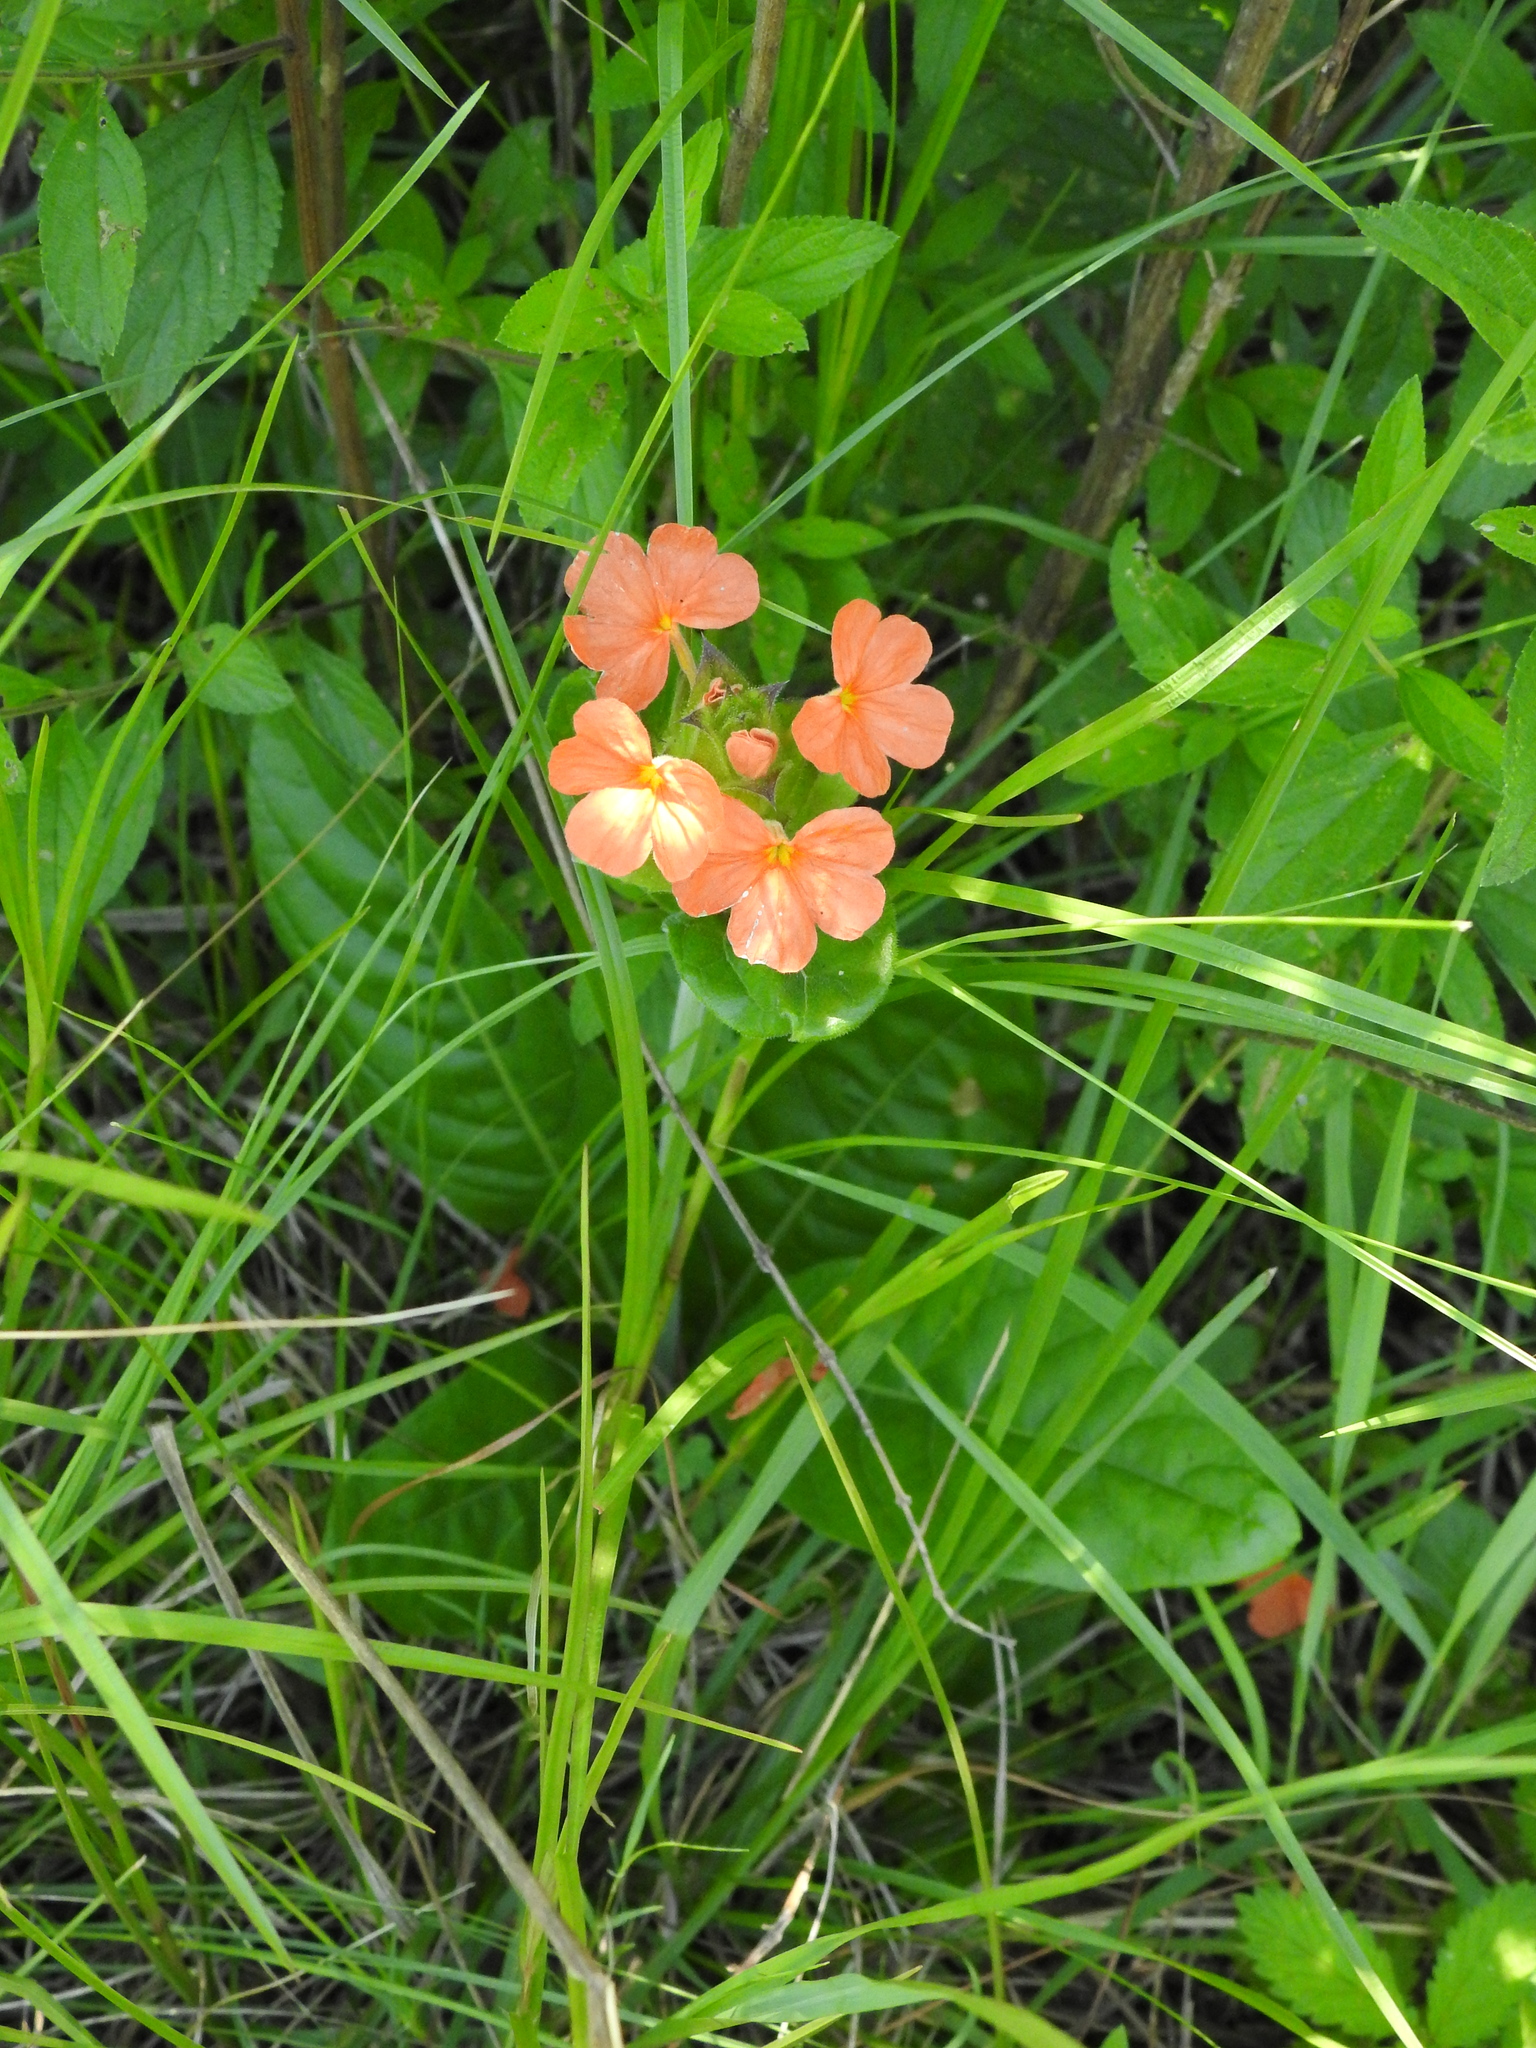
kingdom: Plantae
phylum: Tracheophyta
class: Magnoliopsida
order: Lamiales
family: Acanthaceae
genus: Crossandra
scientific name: Crossandra greenstockii
